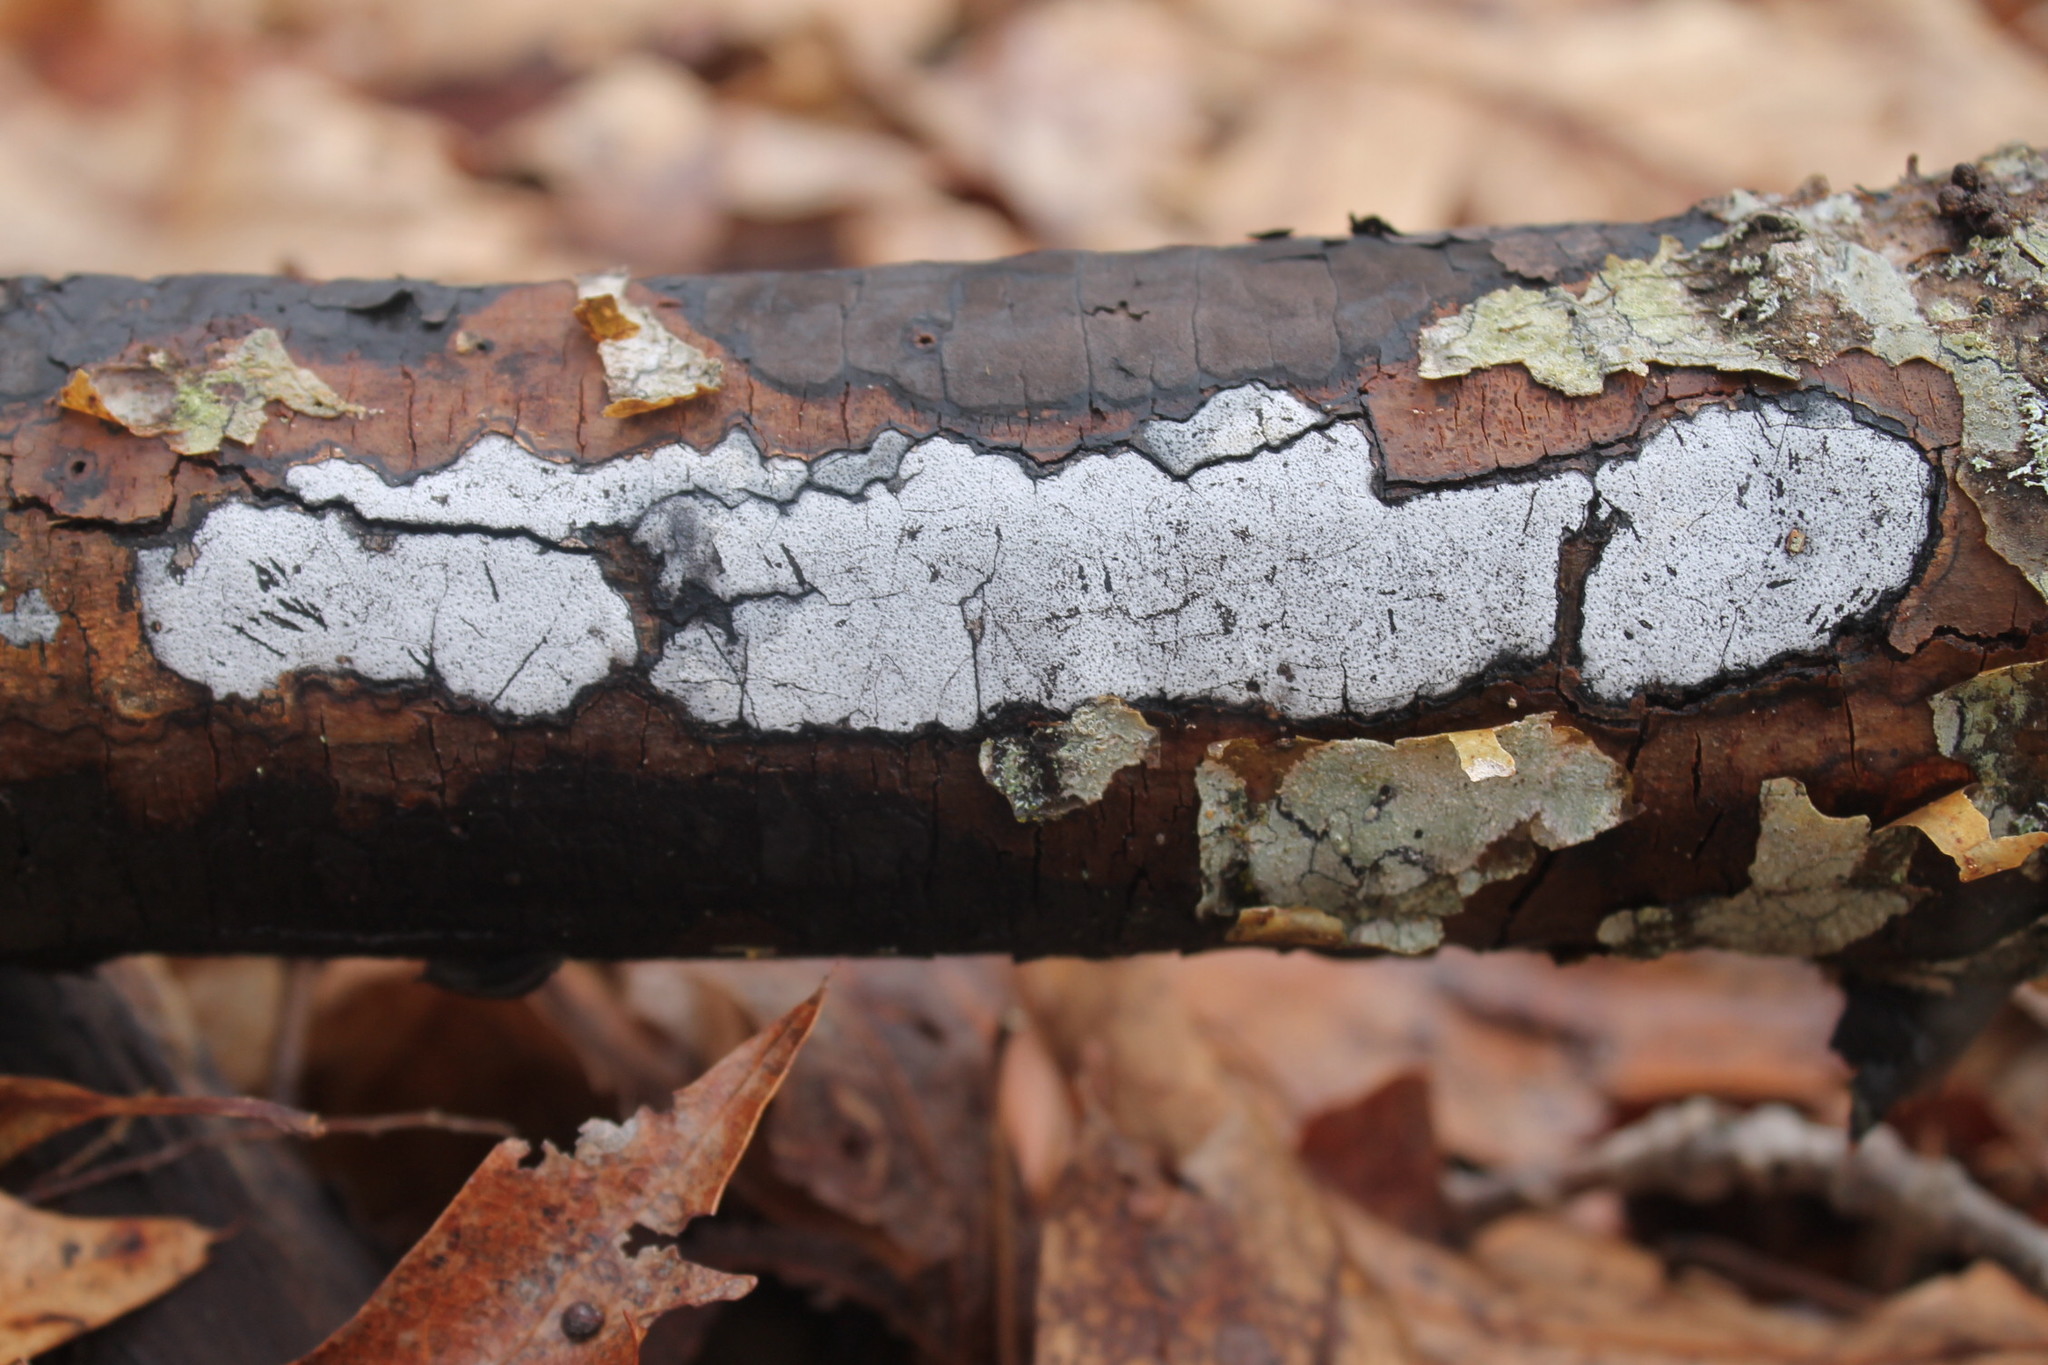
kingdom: Fungi
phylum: Ascomycota
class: Sordariomycetes
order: Xylariales
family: Graphostromataceae
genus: Biscogniauxia
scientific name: Biscogniauxia atropunctata
